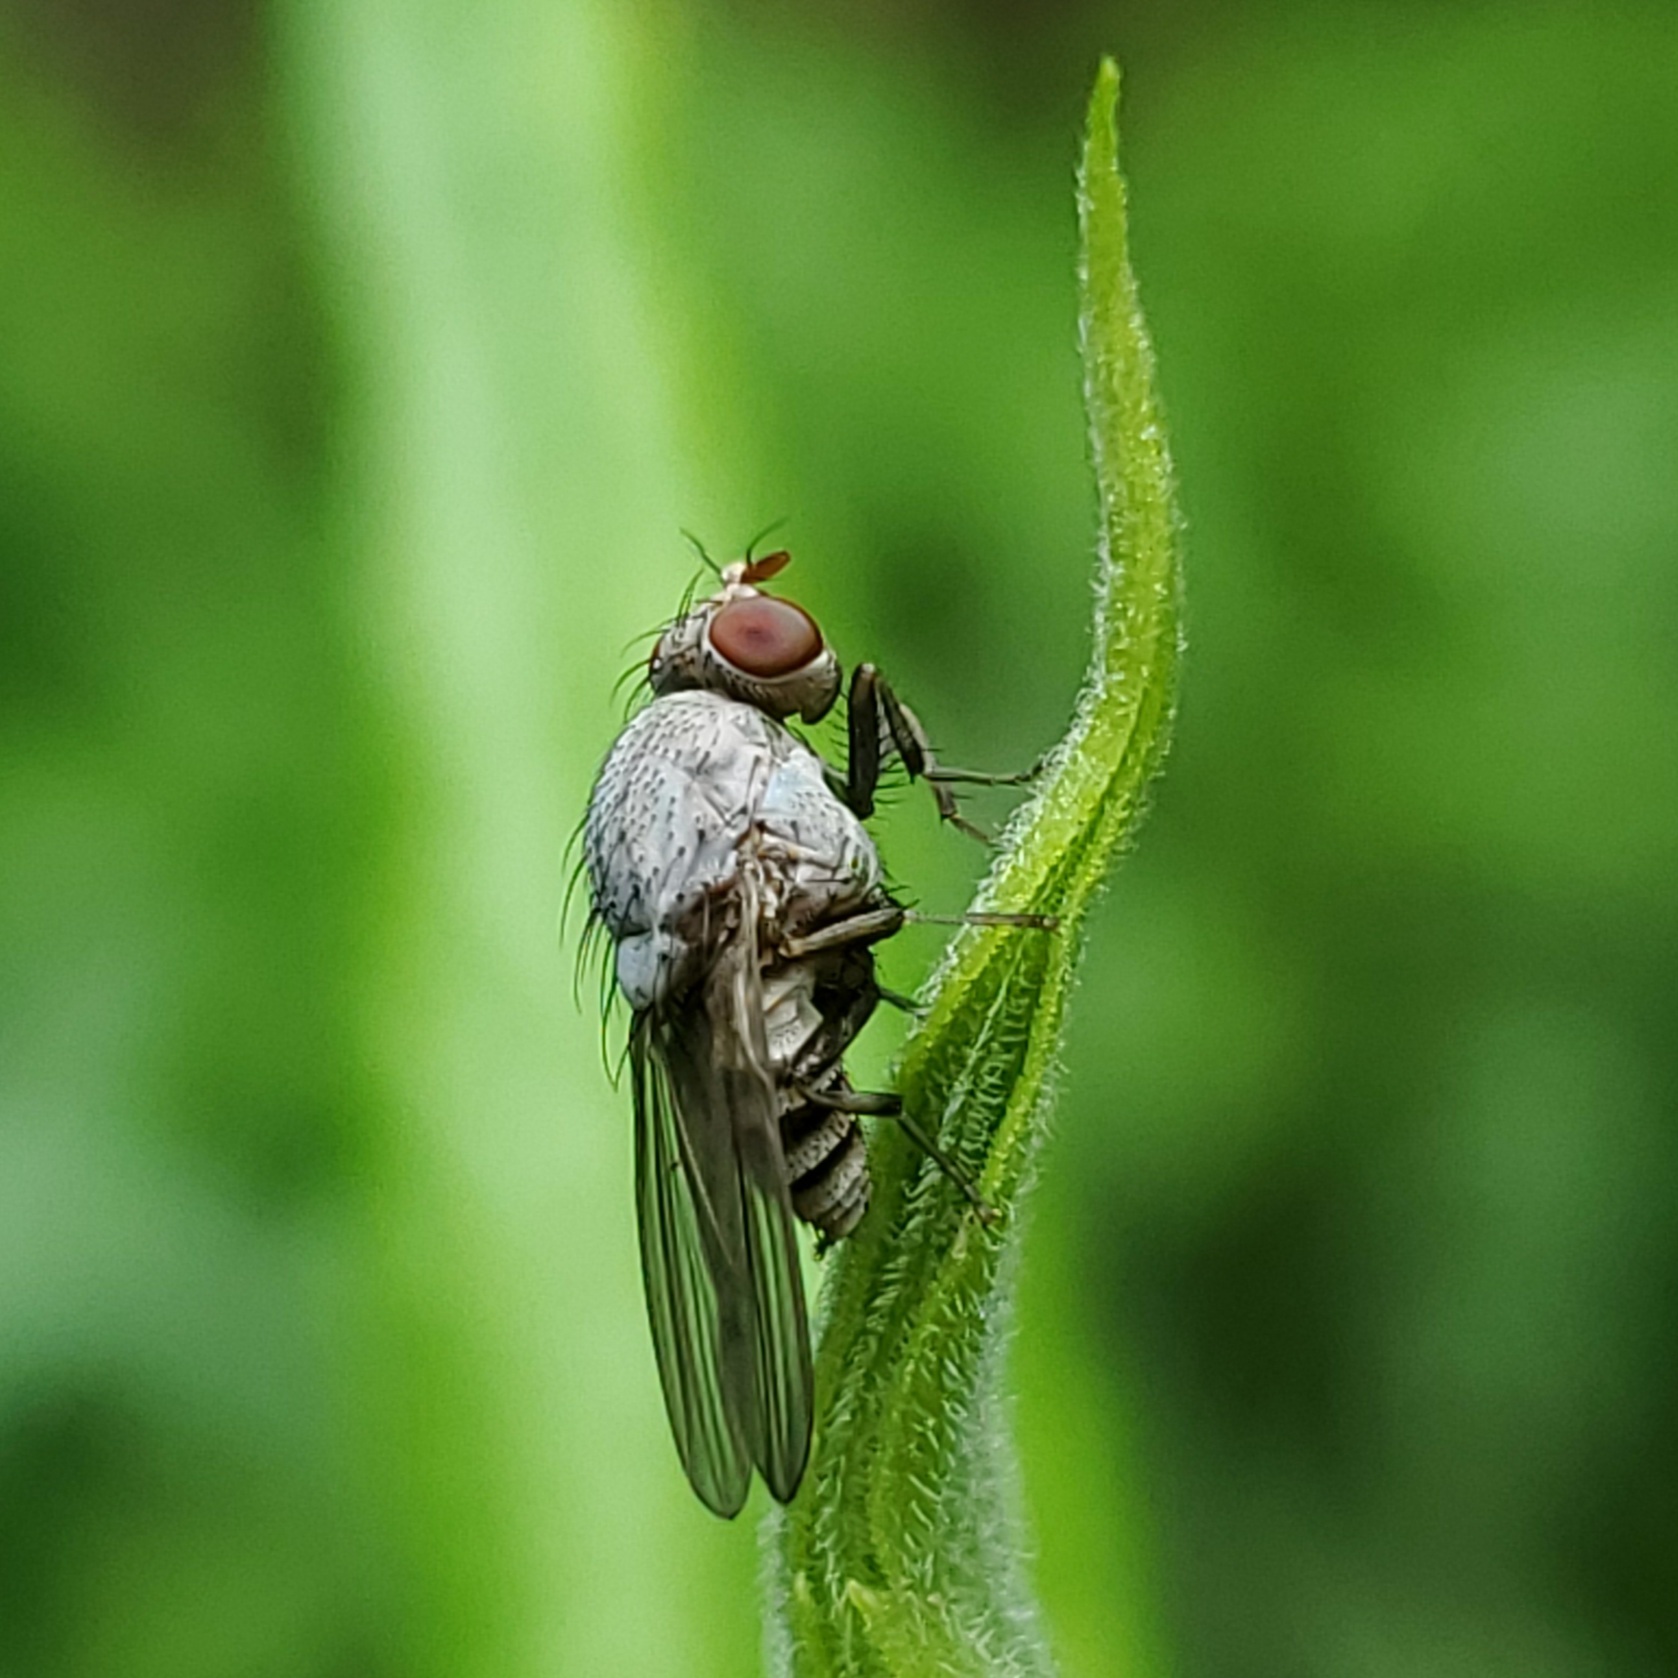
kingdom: Animalia
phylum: Arthropoda
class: Insecta
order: Diptera
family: Lauxaniidae
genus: Minettia
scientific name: Minettia magna
